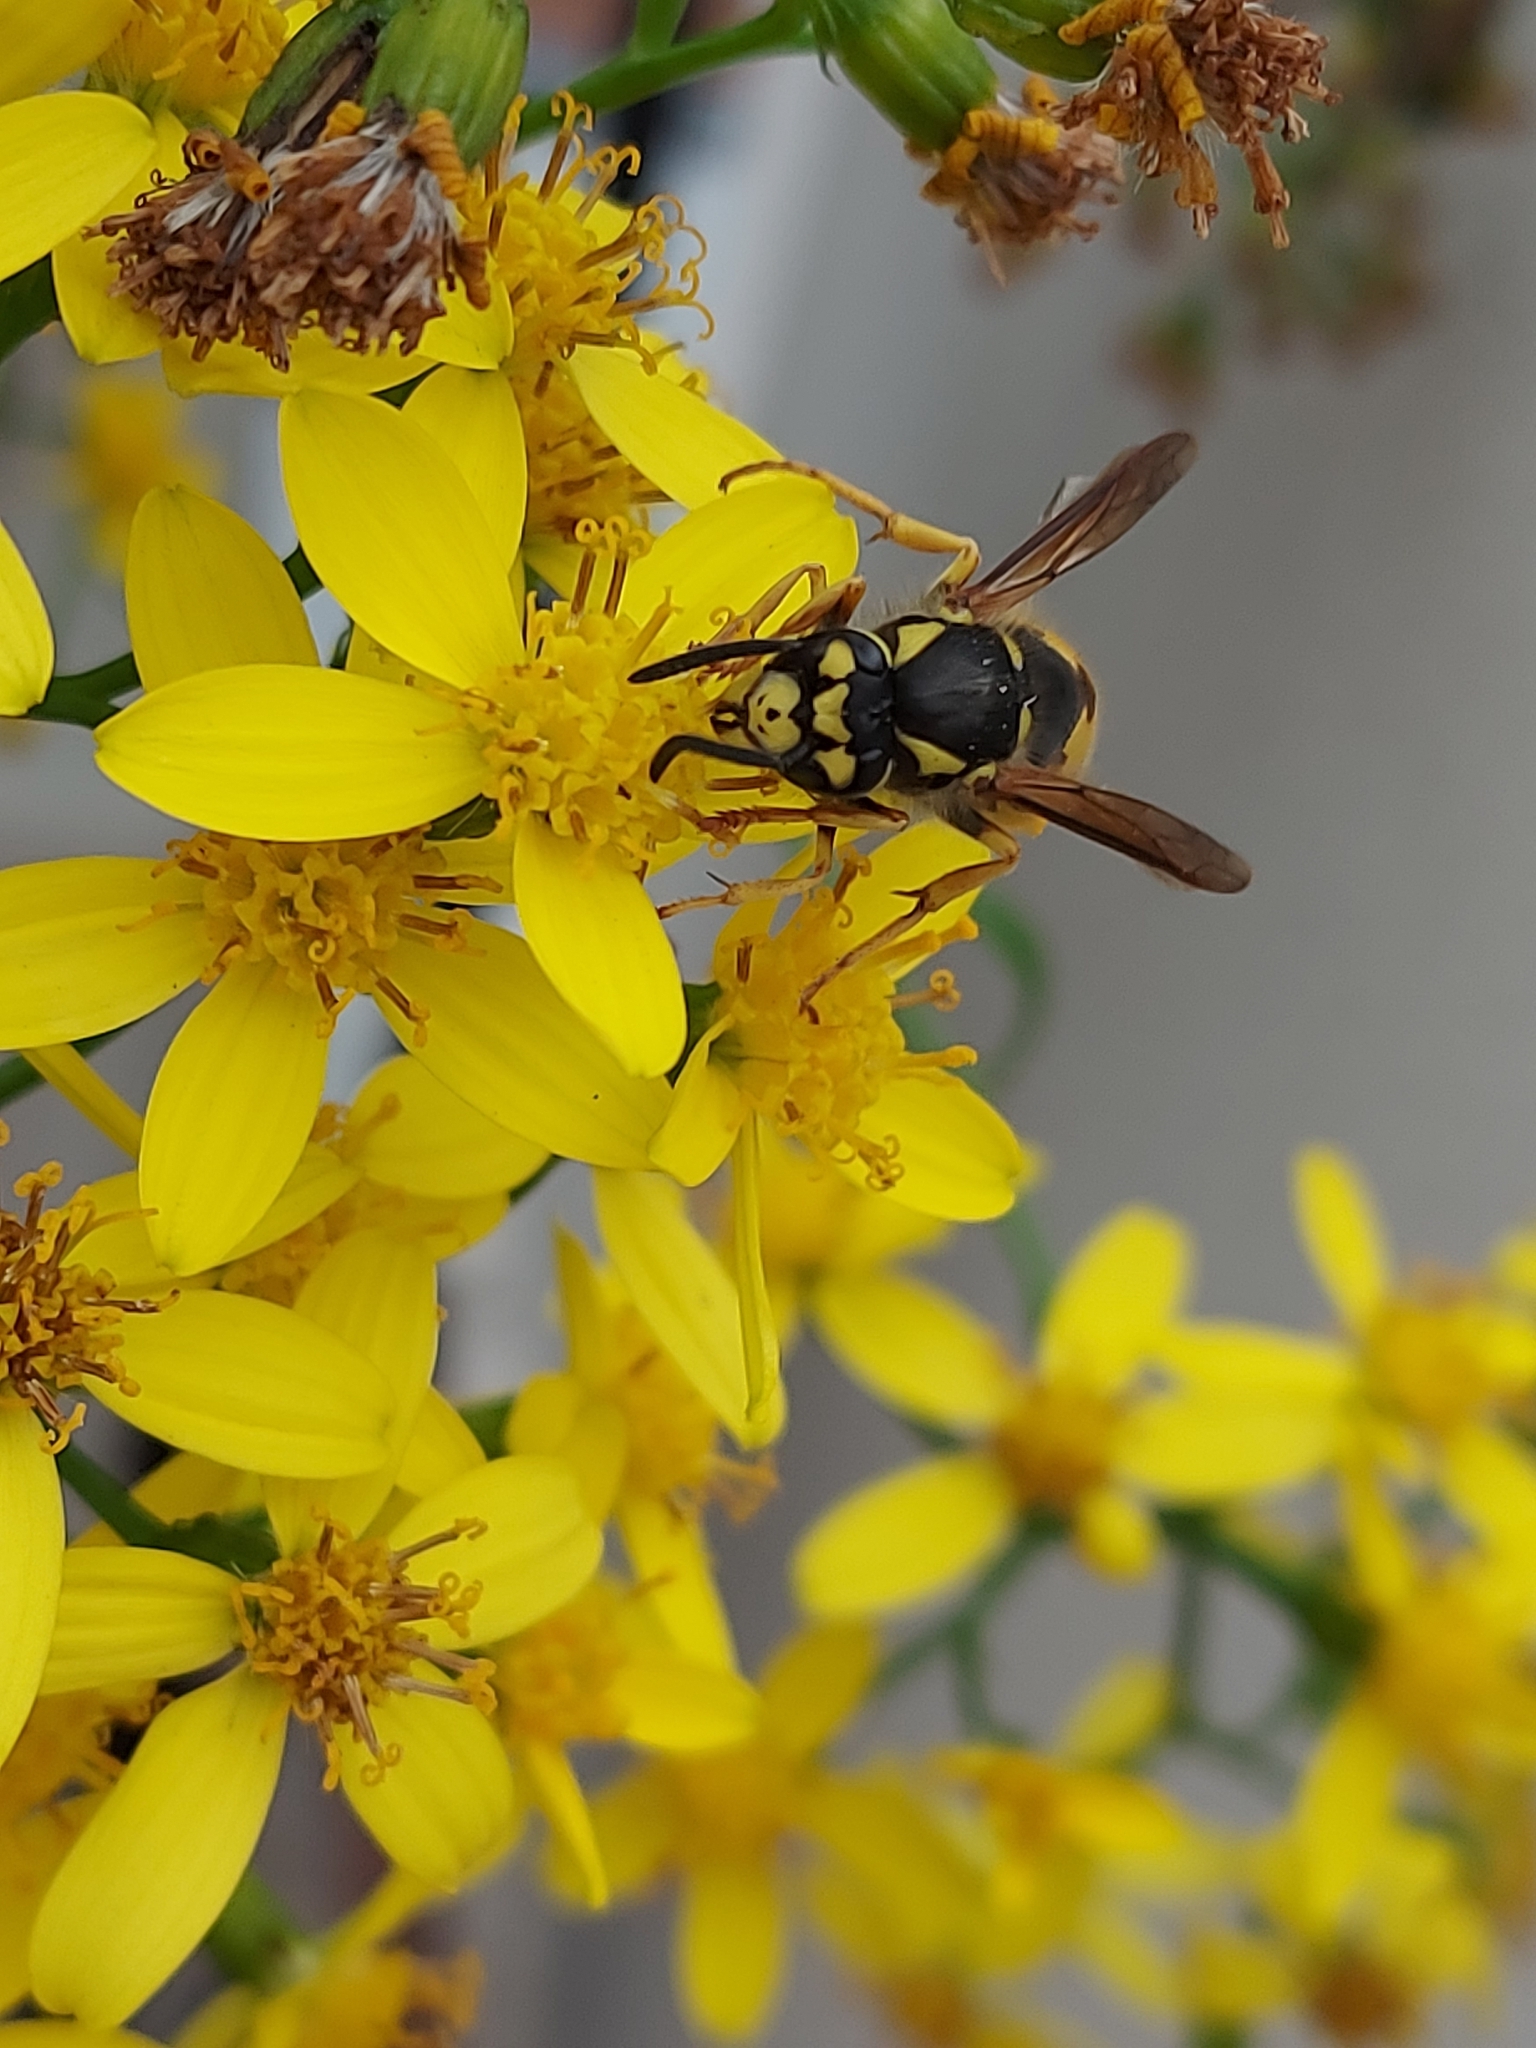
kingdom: Animalia
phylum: Arthropoda
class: Insecta
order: Hymenoptera
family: Vespidae
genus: Vespula
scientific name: Vespula germanica
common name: German wasp
